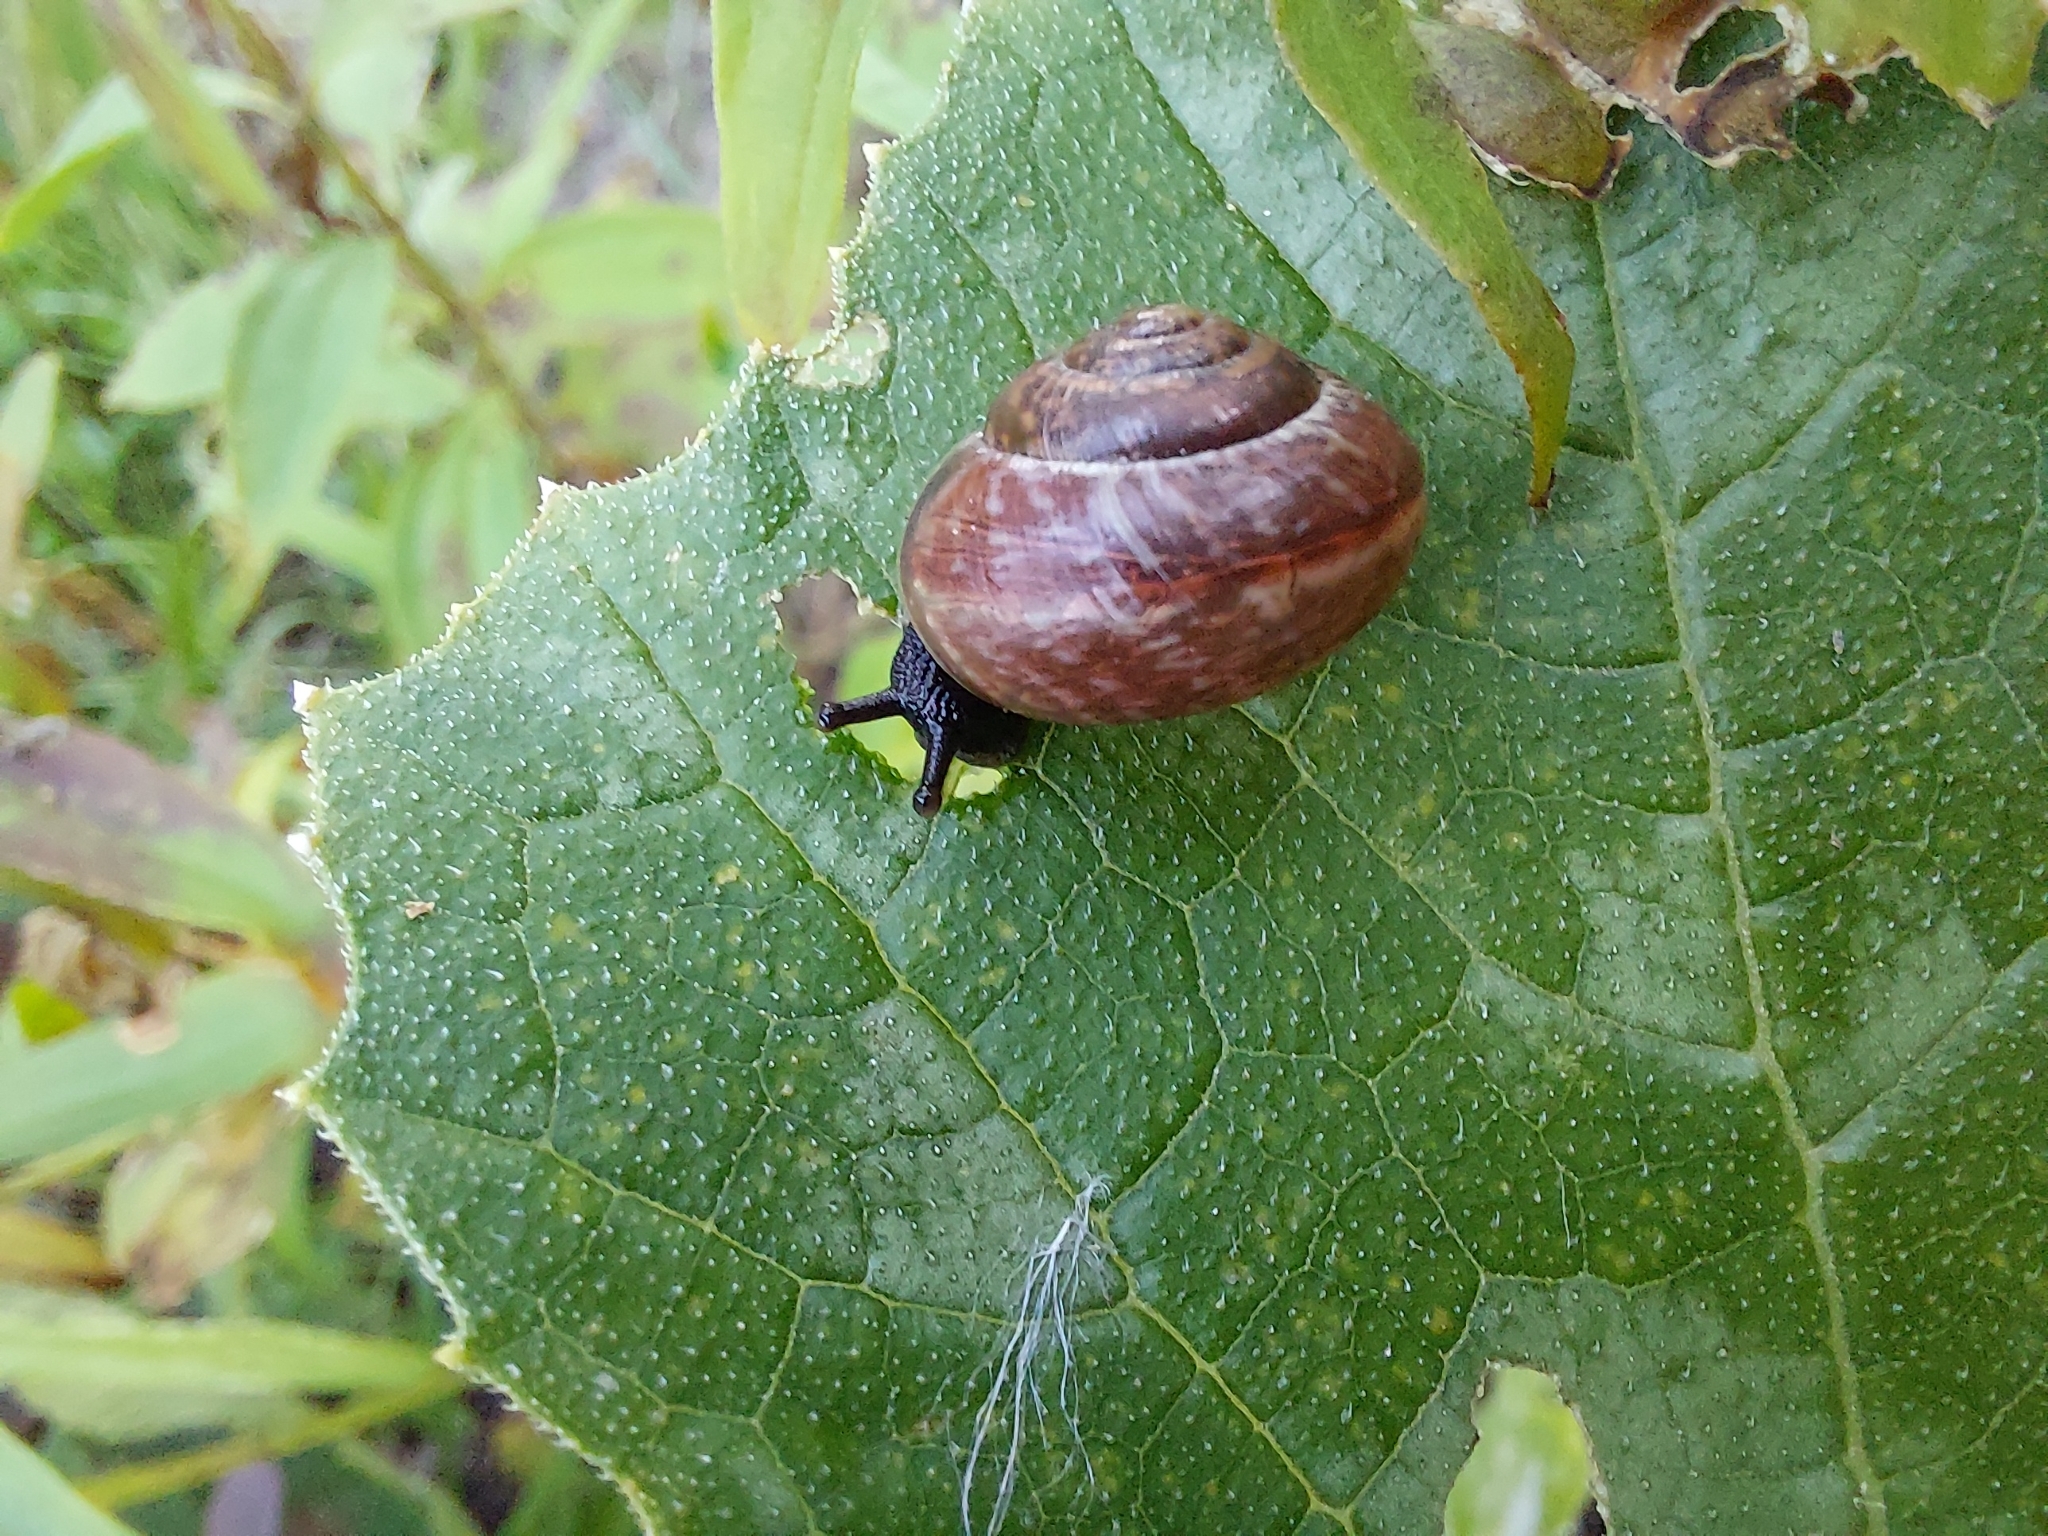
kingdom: Animalia
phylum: Mollusca
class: Gastropoda
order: Stylommatophora
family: Helicidae
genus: Arianta
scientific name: Arianta arbustorum
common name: Copse snail
